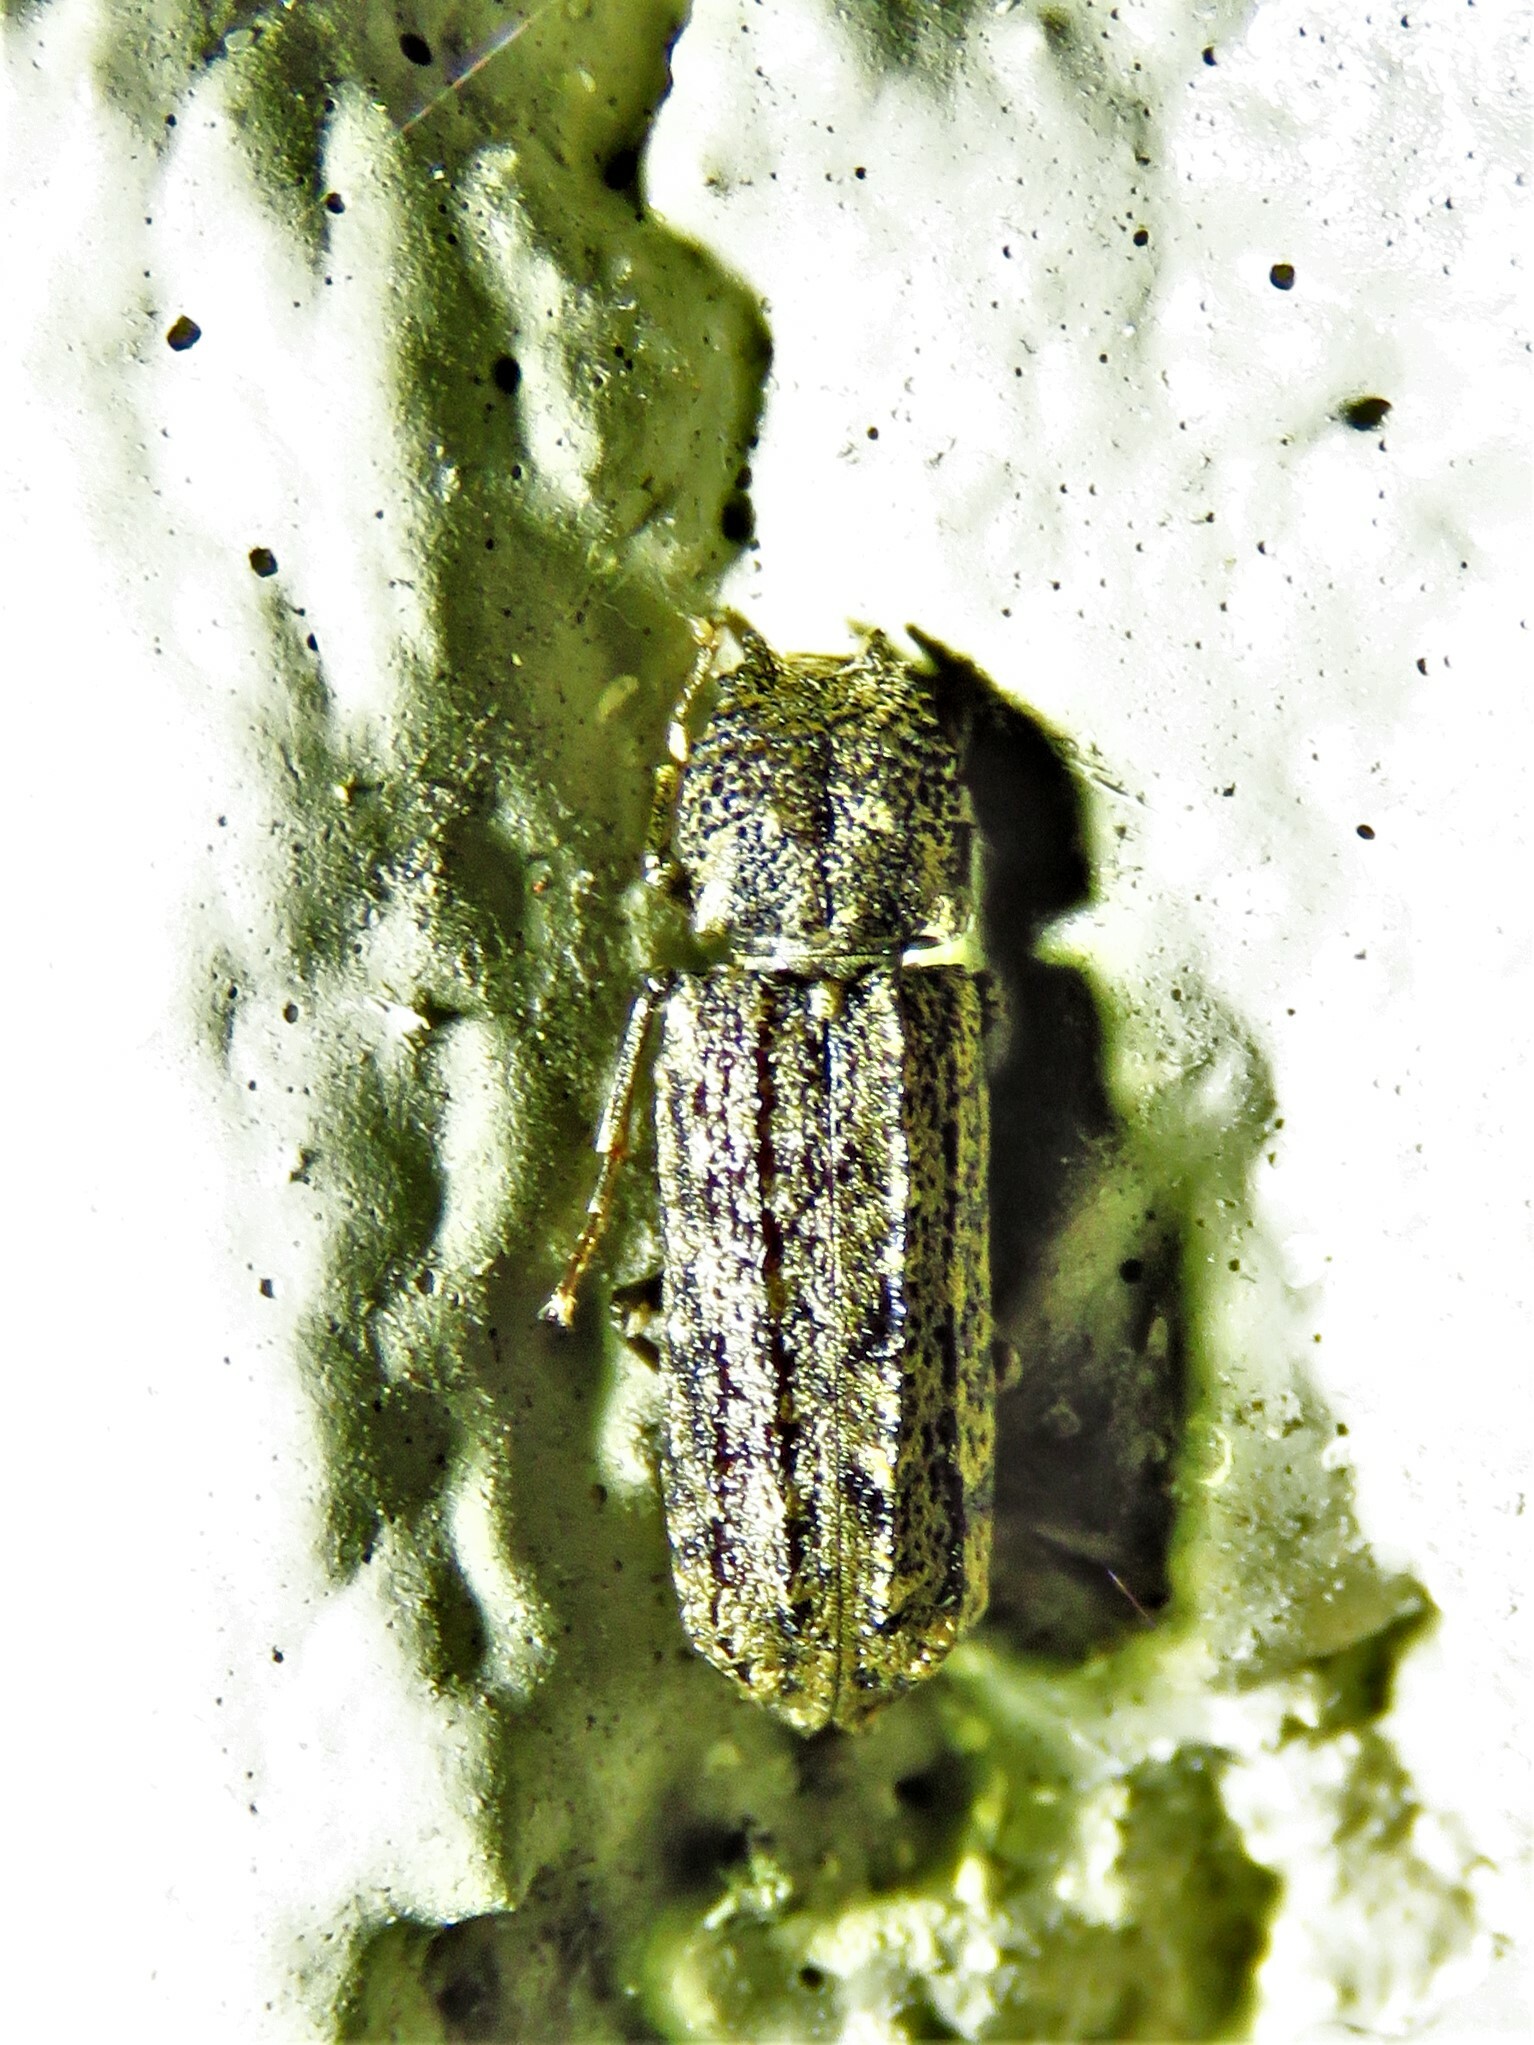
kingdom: Animalia
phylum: Arthropoda
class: Insecta
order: Coleoptera
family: Bostrichidae
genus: Lichenophanes
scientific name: Lichenophanes bicornis
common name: Two-horned powder-post beetle
